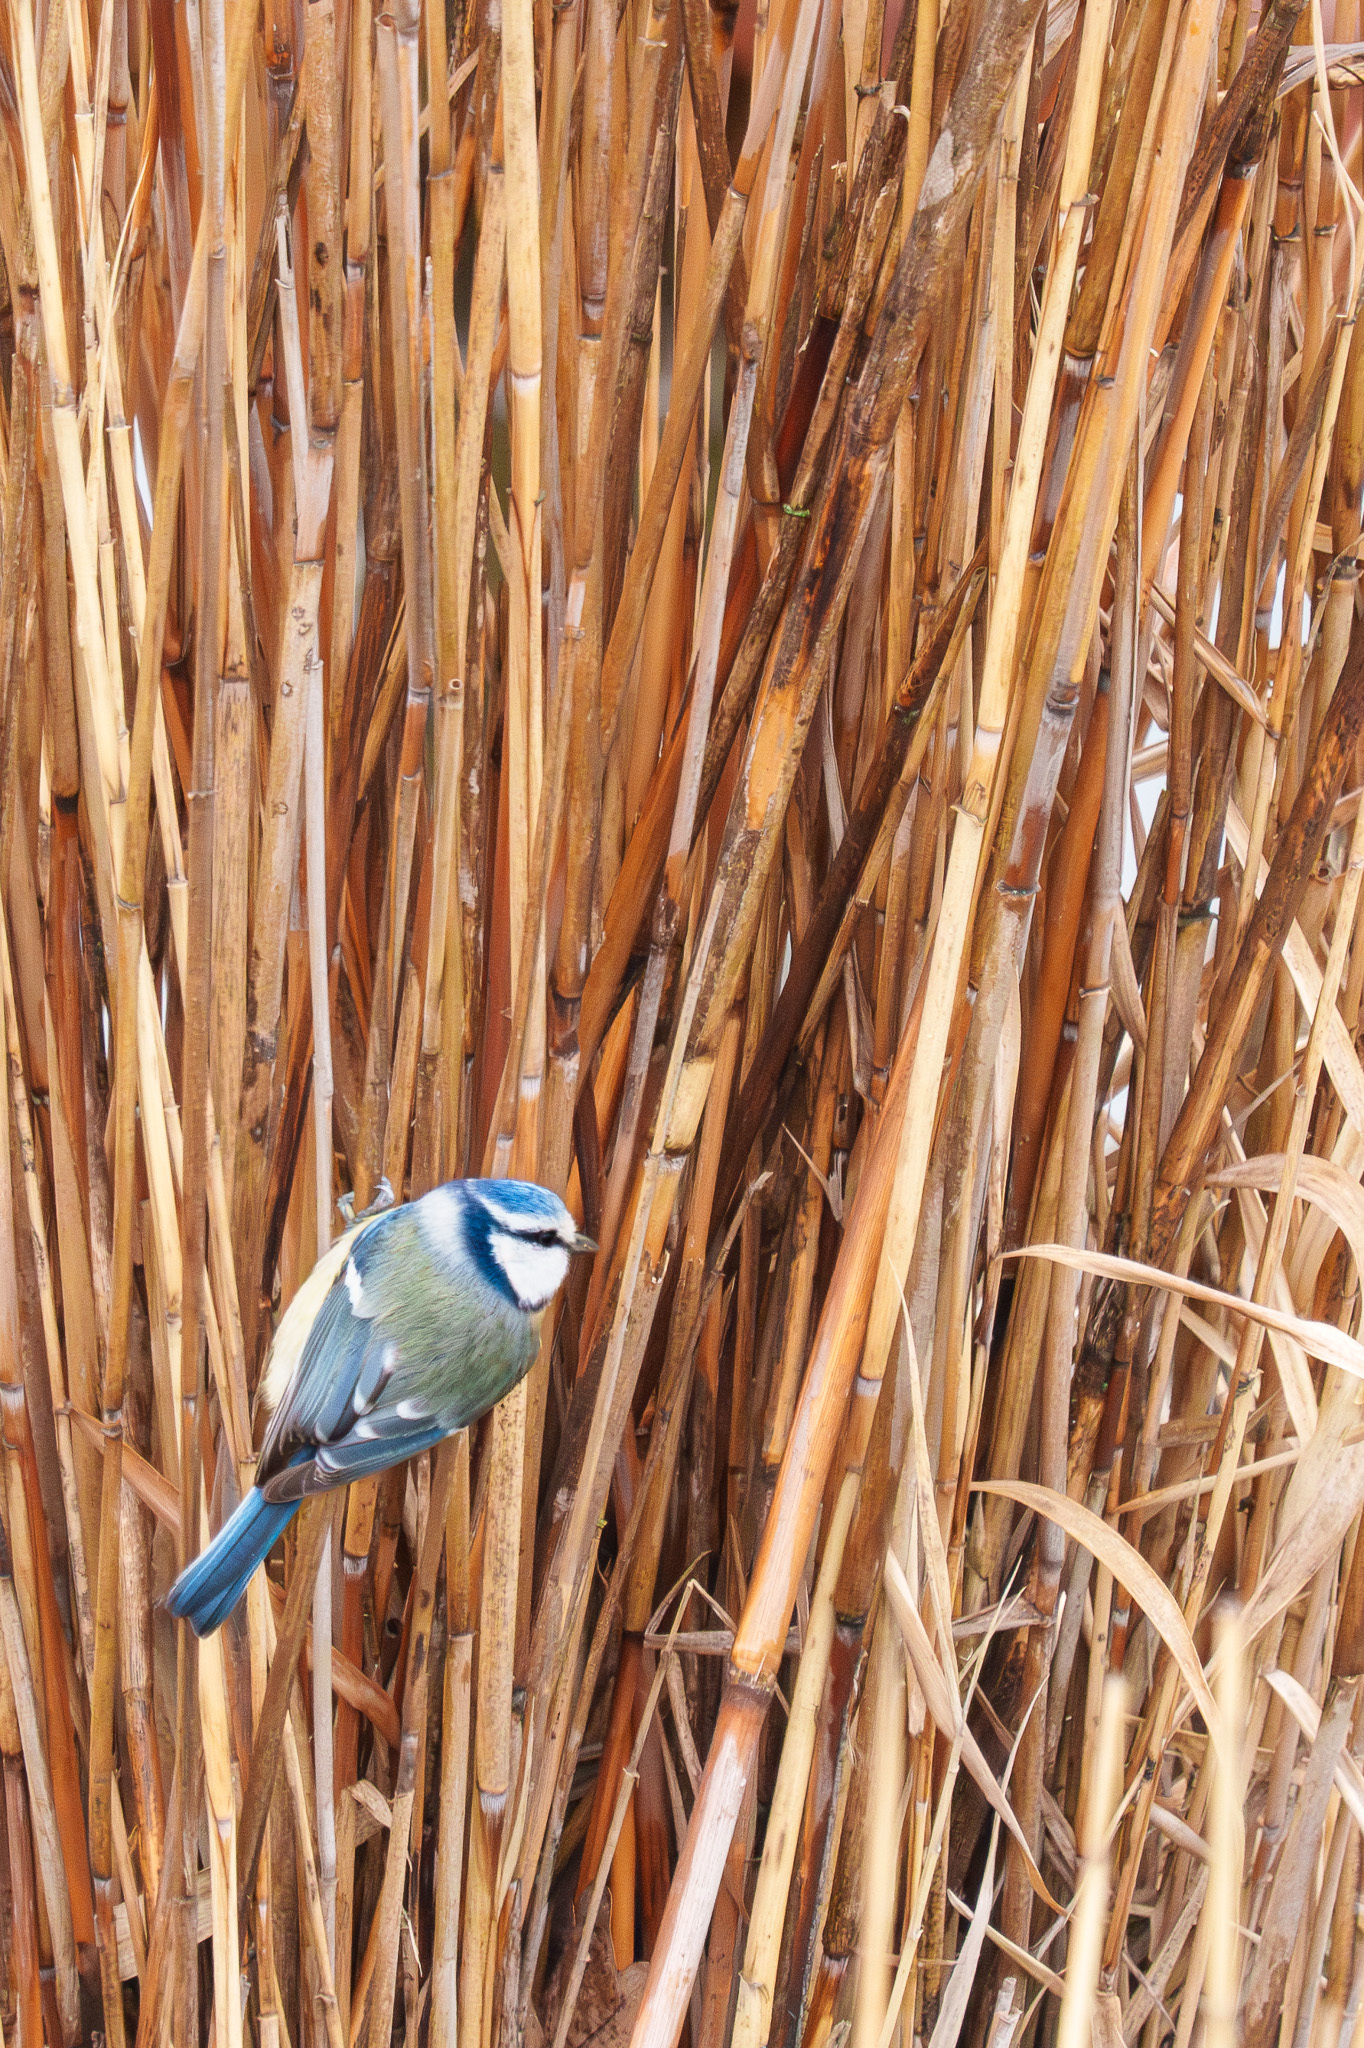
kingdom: Animalia
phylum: Chordata
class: Aves
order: Passeriformes
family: Paridae
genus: Cyanistes
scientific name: Cyanistes caeruleus
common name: Eurasian blue tit
